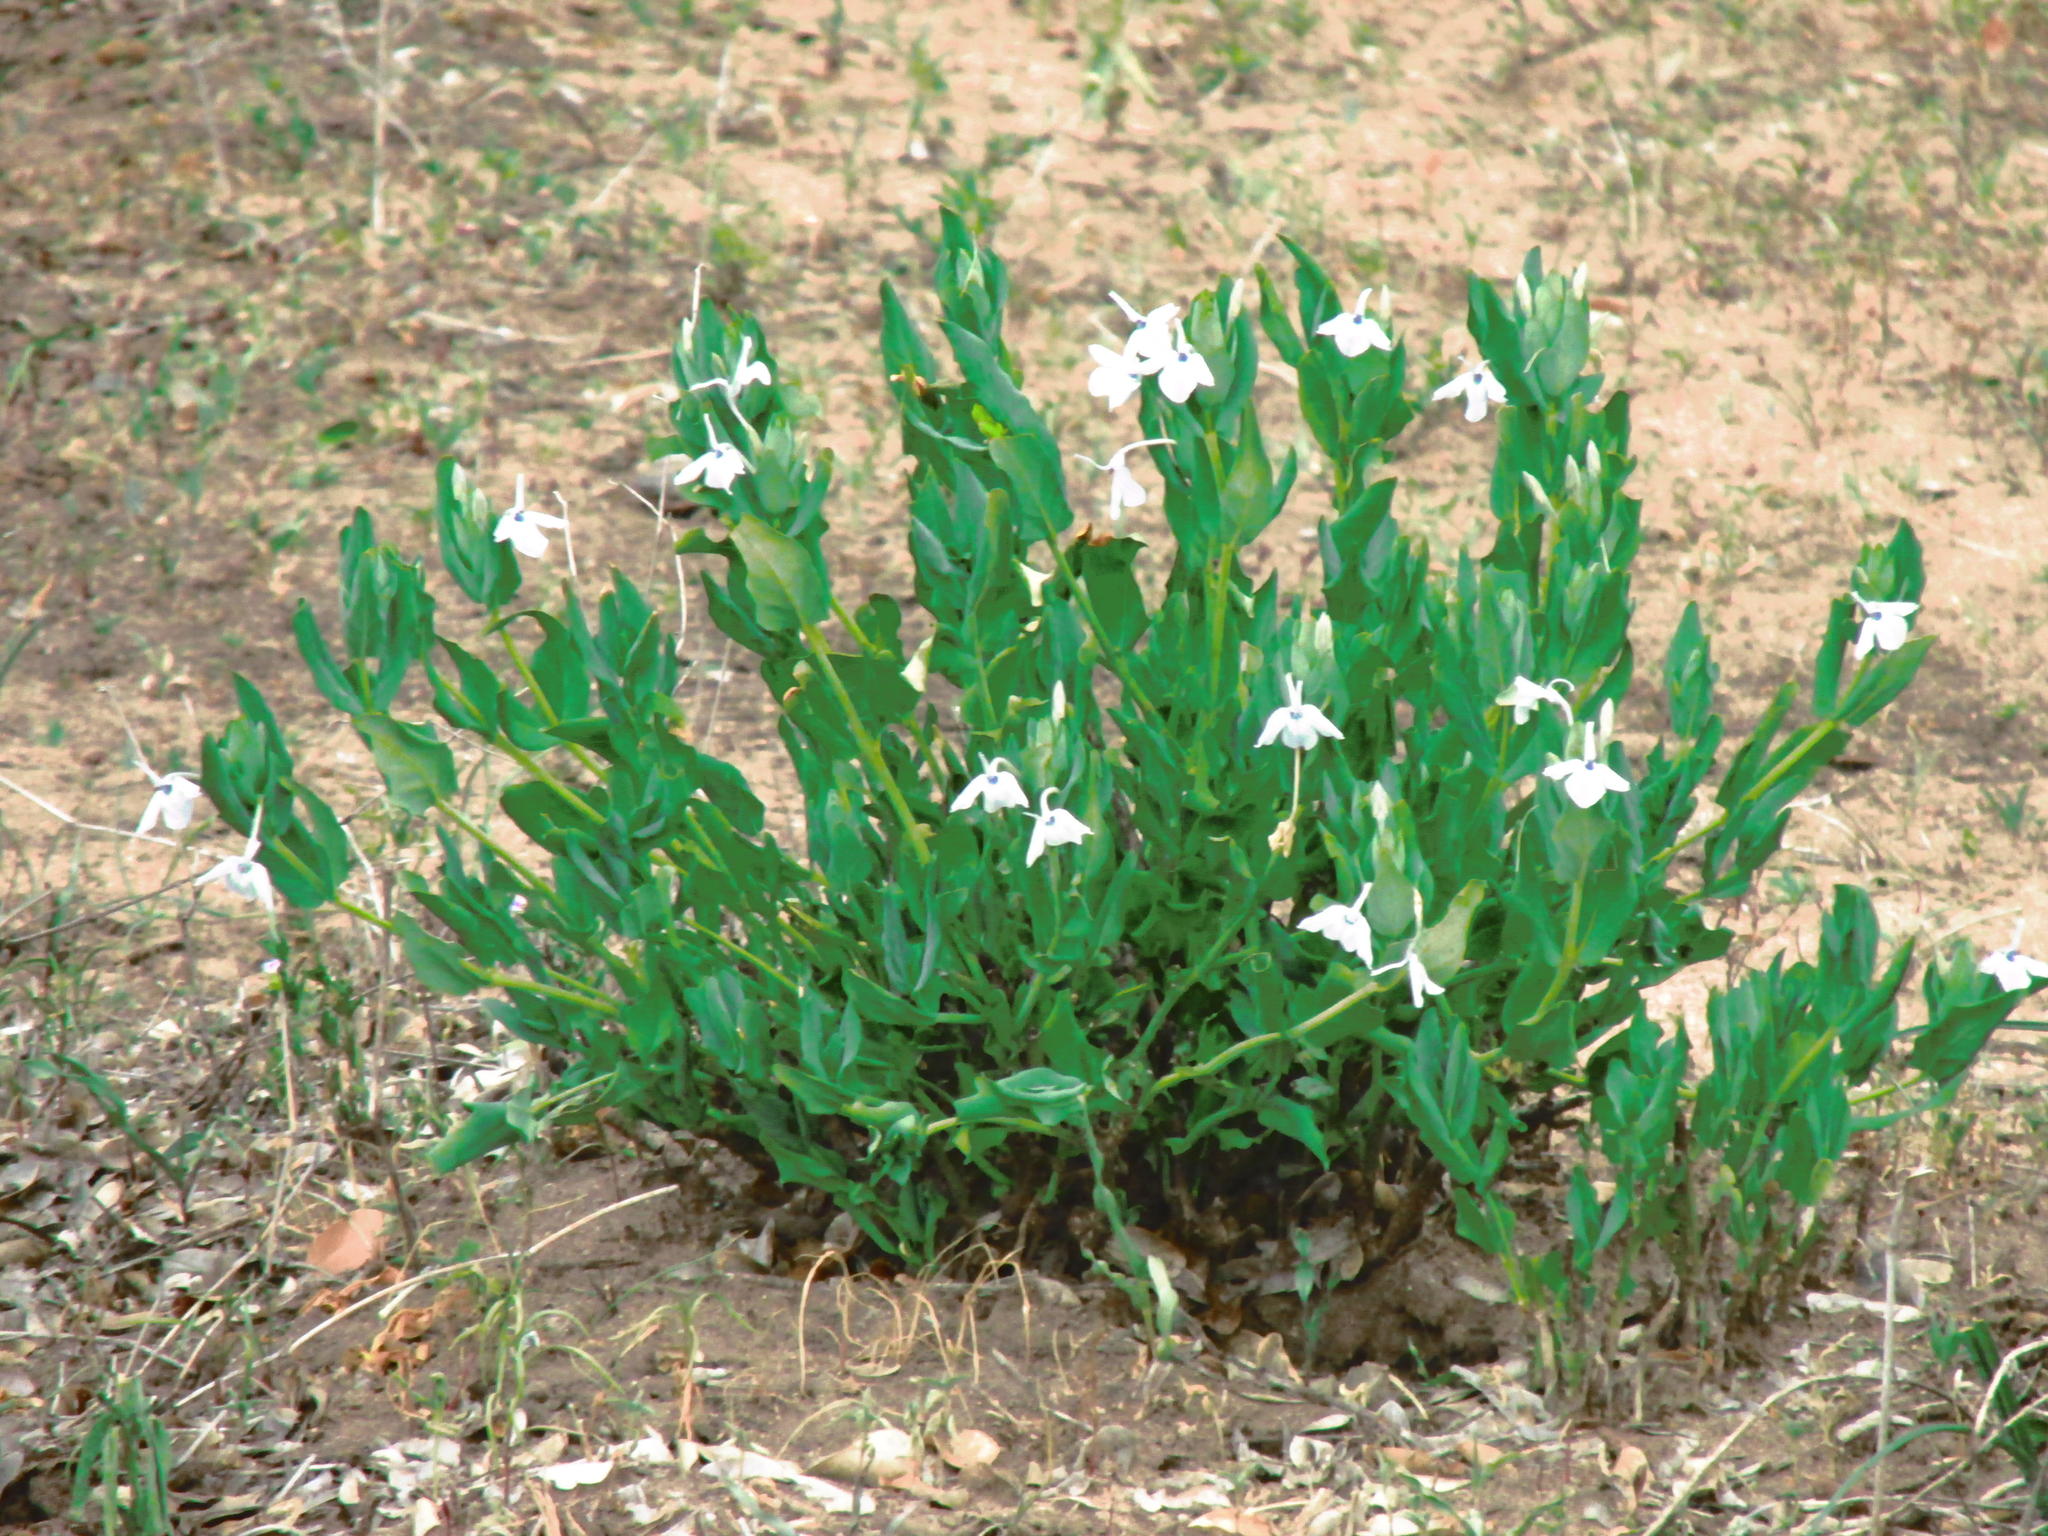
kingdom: Plantae
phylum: Tracheophyta
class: Magnoliopsida
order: Lamiales
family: Acanthaceae
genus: Ecbolium
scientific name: Ecbolium glabratum
